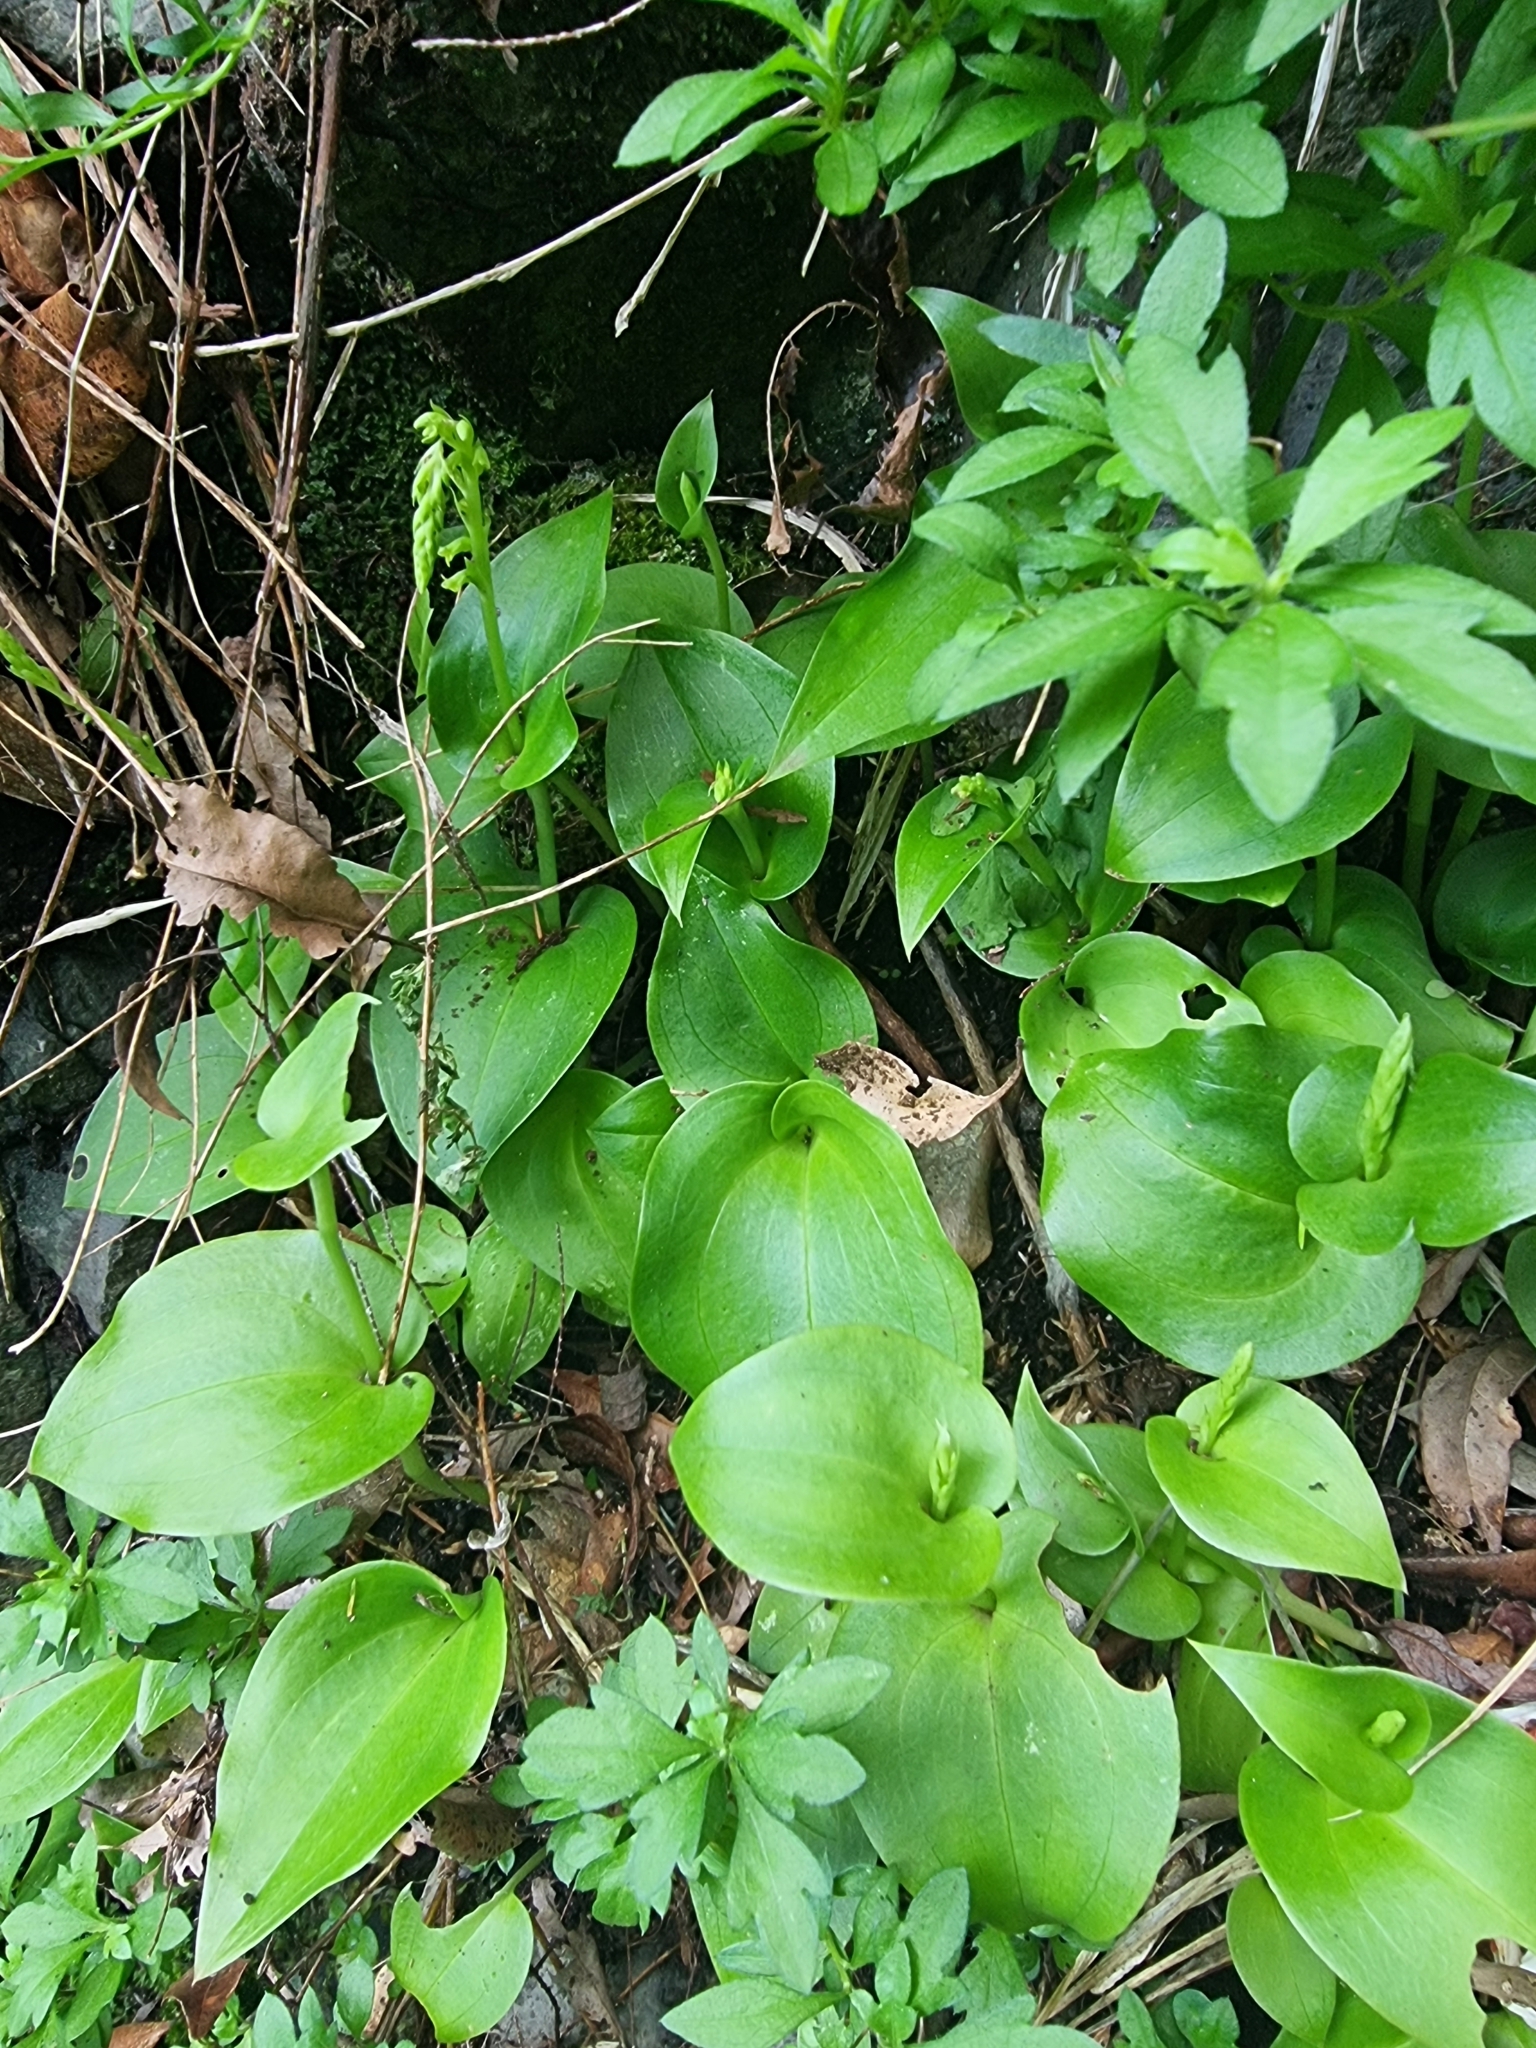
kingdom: Plantae
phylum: Tracheophyta
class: Liliopsida
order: Asparagales
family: Orchidaceae
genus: Gennaria
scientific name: Gennaria diphylla
